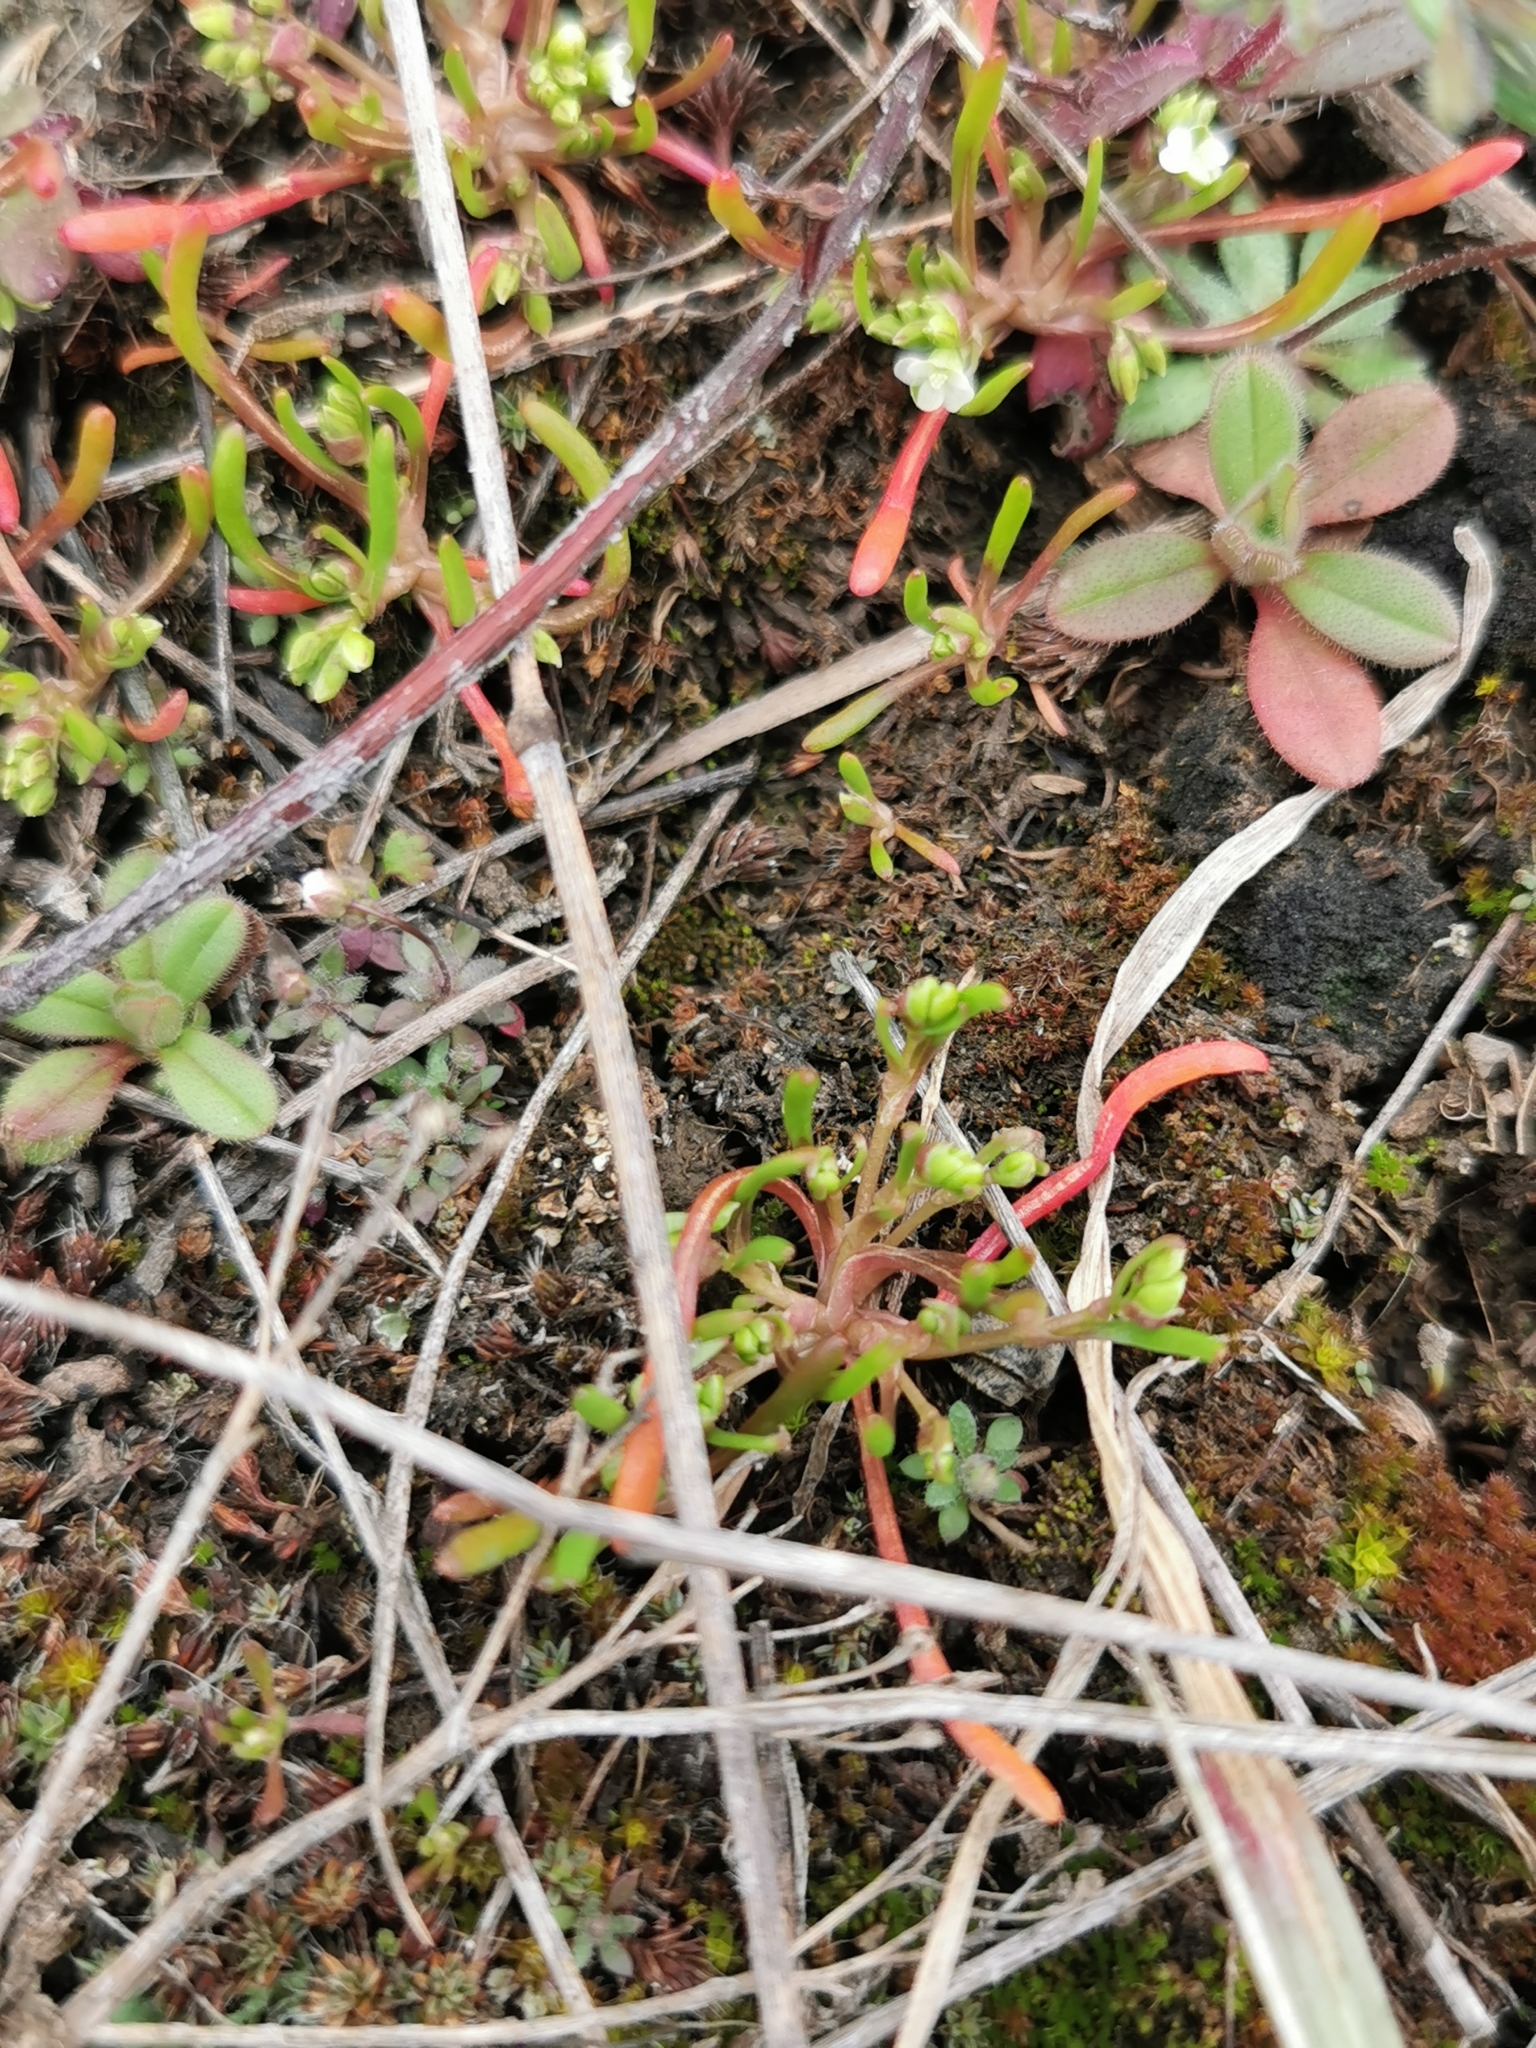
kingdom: Plantae
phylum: Tracheophyta
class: Magnoliopsida
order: Caryophyllales
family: Montiaceae
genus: Montia
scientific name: Montia linearis
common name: Narrow-leaf montia
